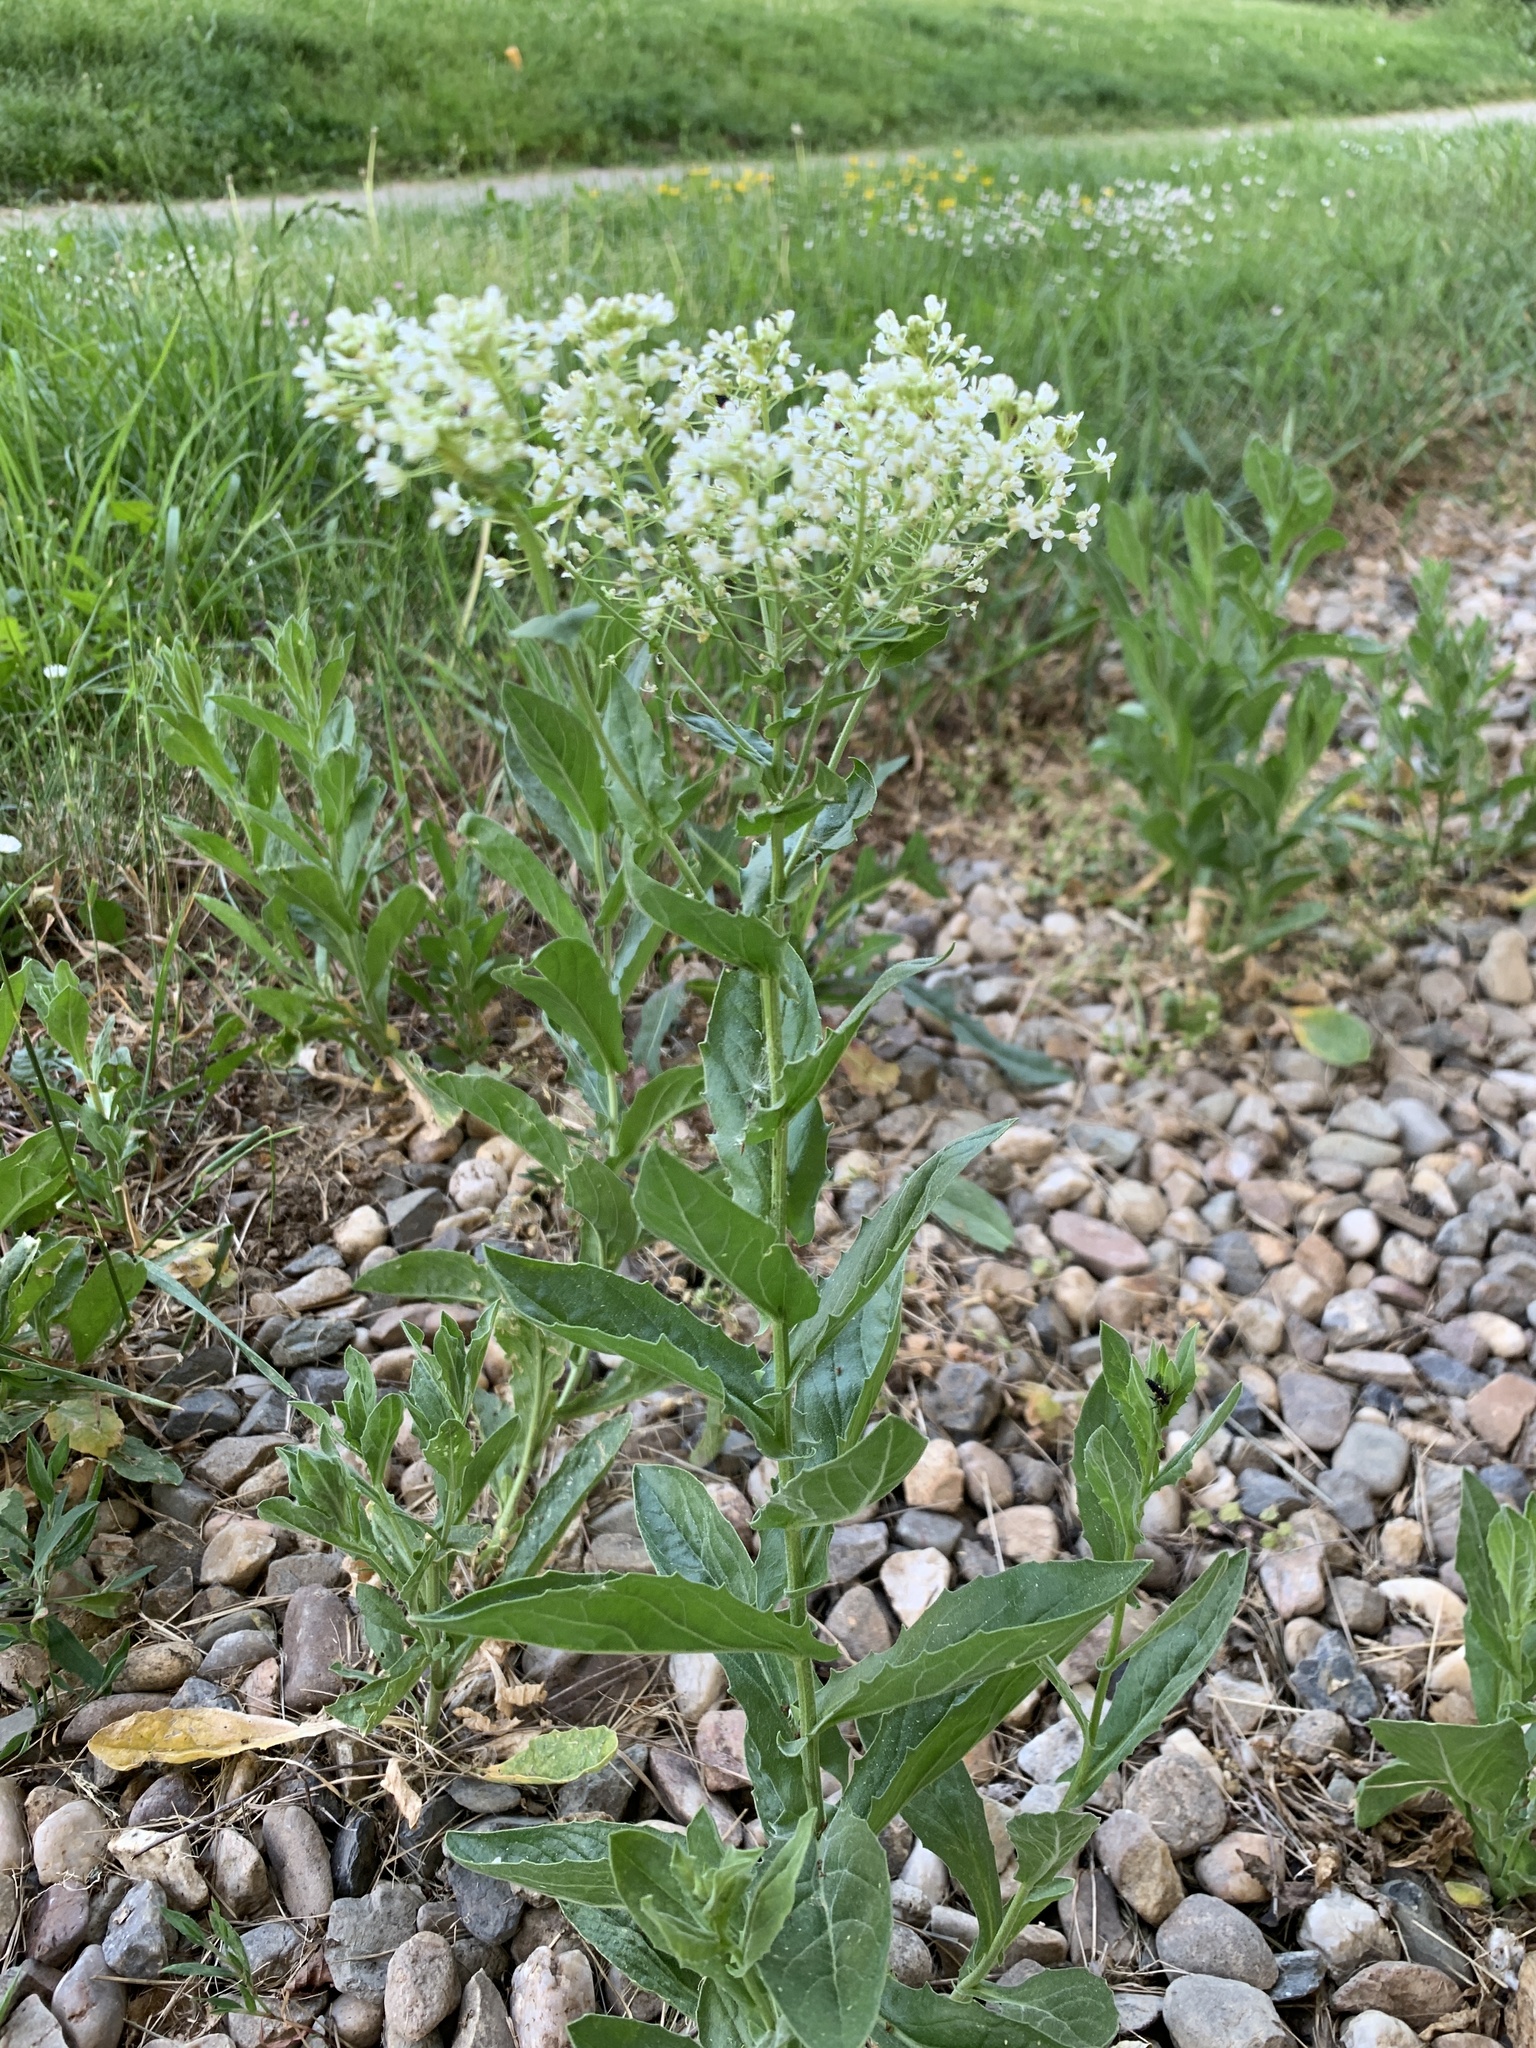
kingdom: Plantae
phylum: Tracheophyta
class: Magnoliopsida
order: Brassicales
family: Brassicaceae
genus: Lepidium
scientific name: Lepidium draba
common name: Hoary cress
